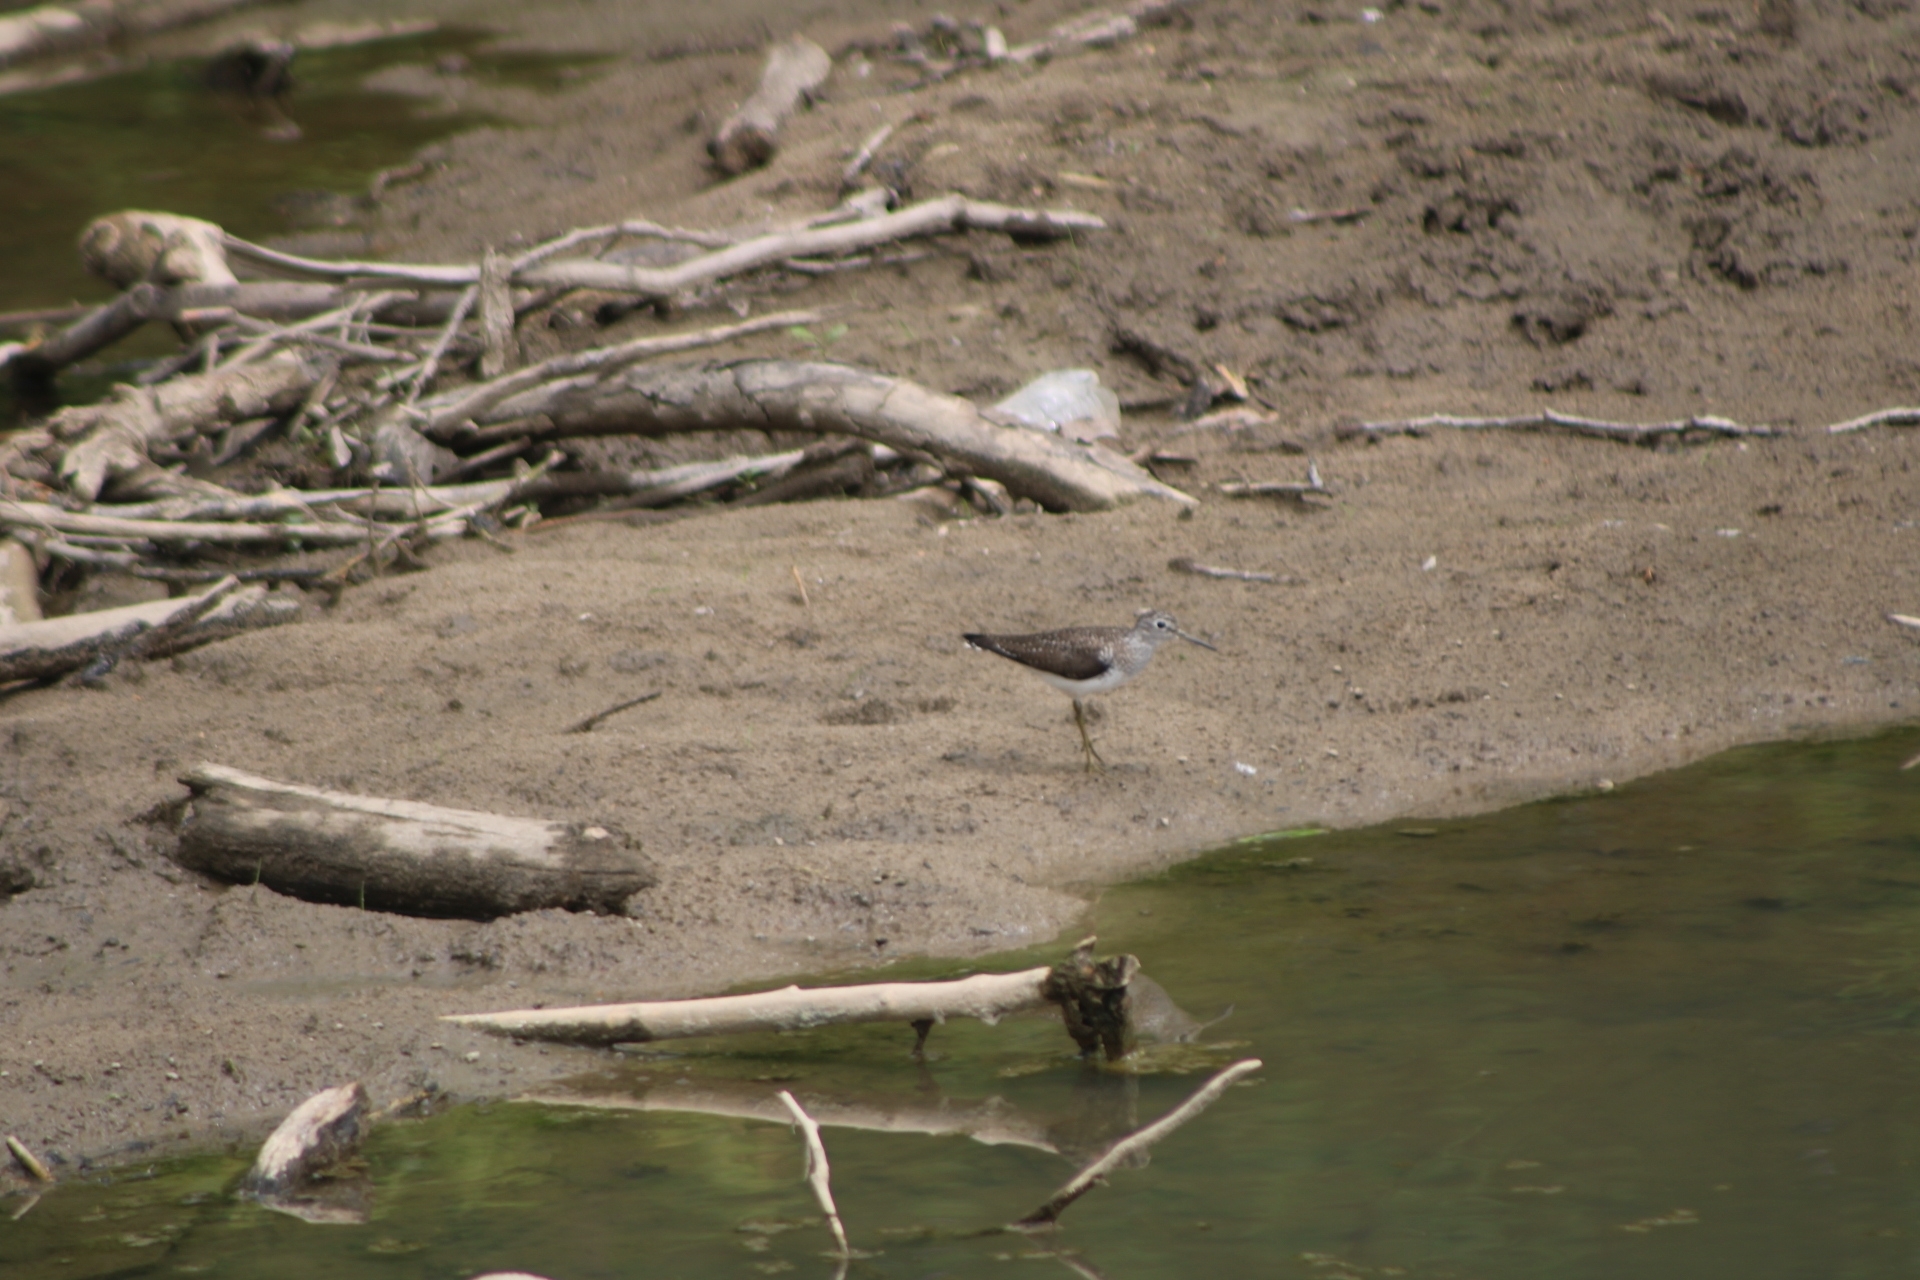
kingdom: Animalia
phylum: Chordata
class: Aves
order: Charadriiformes
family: Scolopacidae
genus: Tringa
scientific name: Tringa solitaria
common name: Solitary sandpiper
